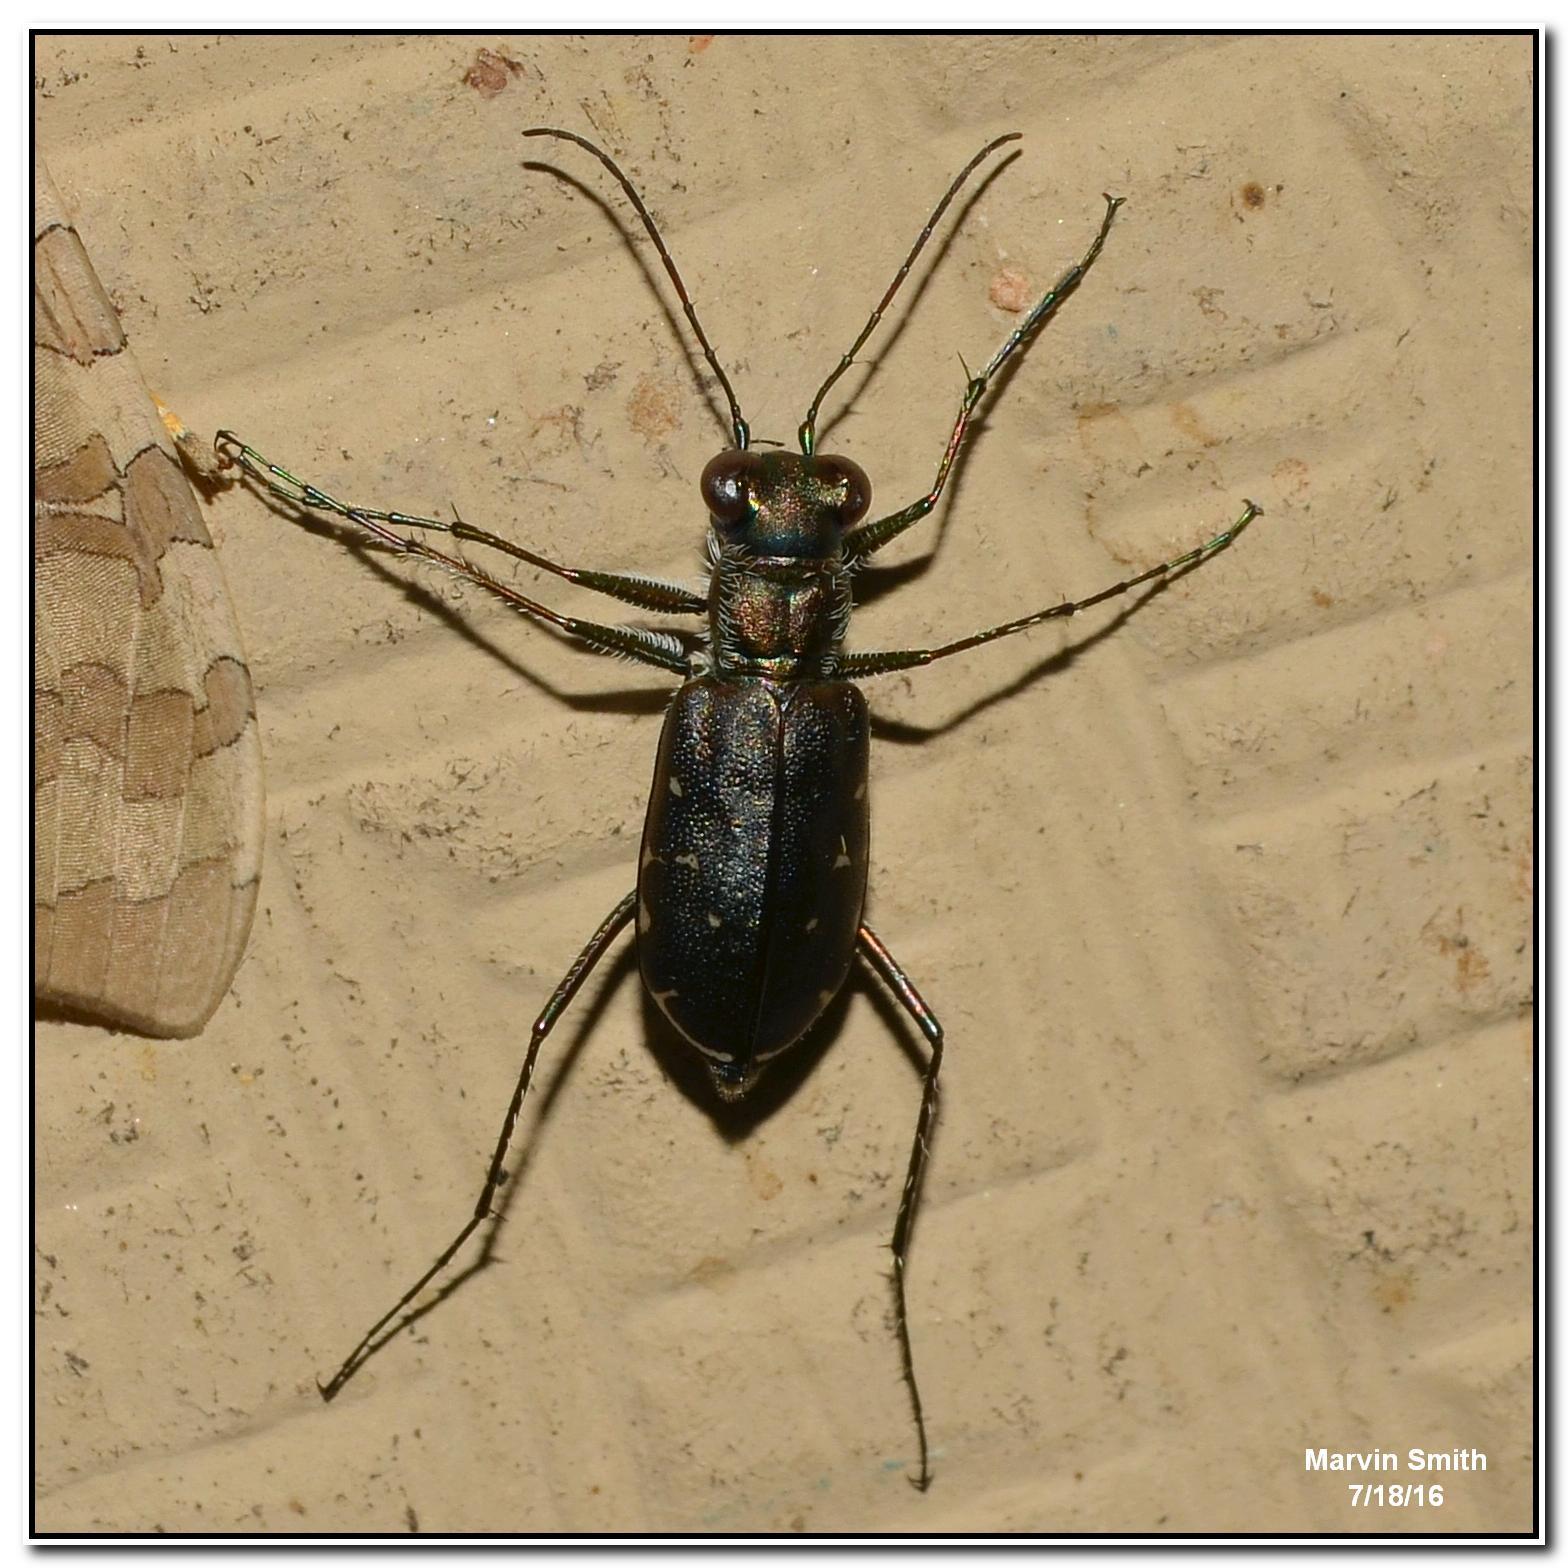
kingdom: Animalia
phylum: Arthropoda
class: Insecta
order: Coleoptera
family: Carabidae
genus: Cicindela
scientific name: Cicindela punctulata
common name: Punctured tiger beetle
